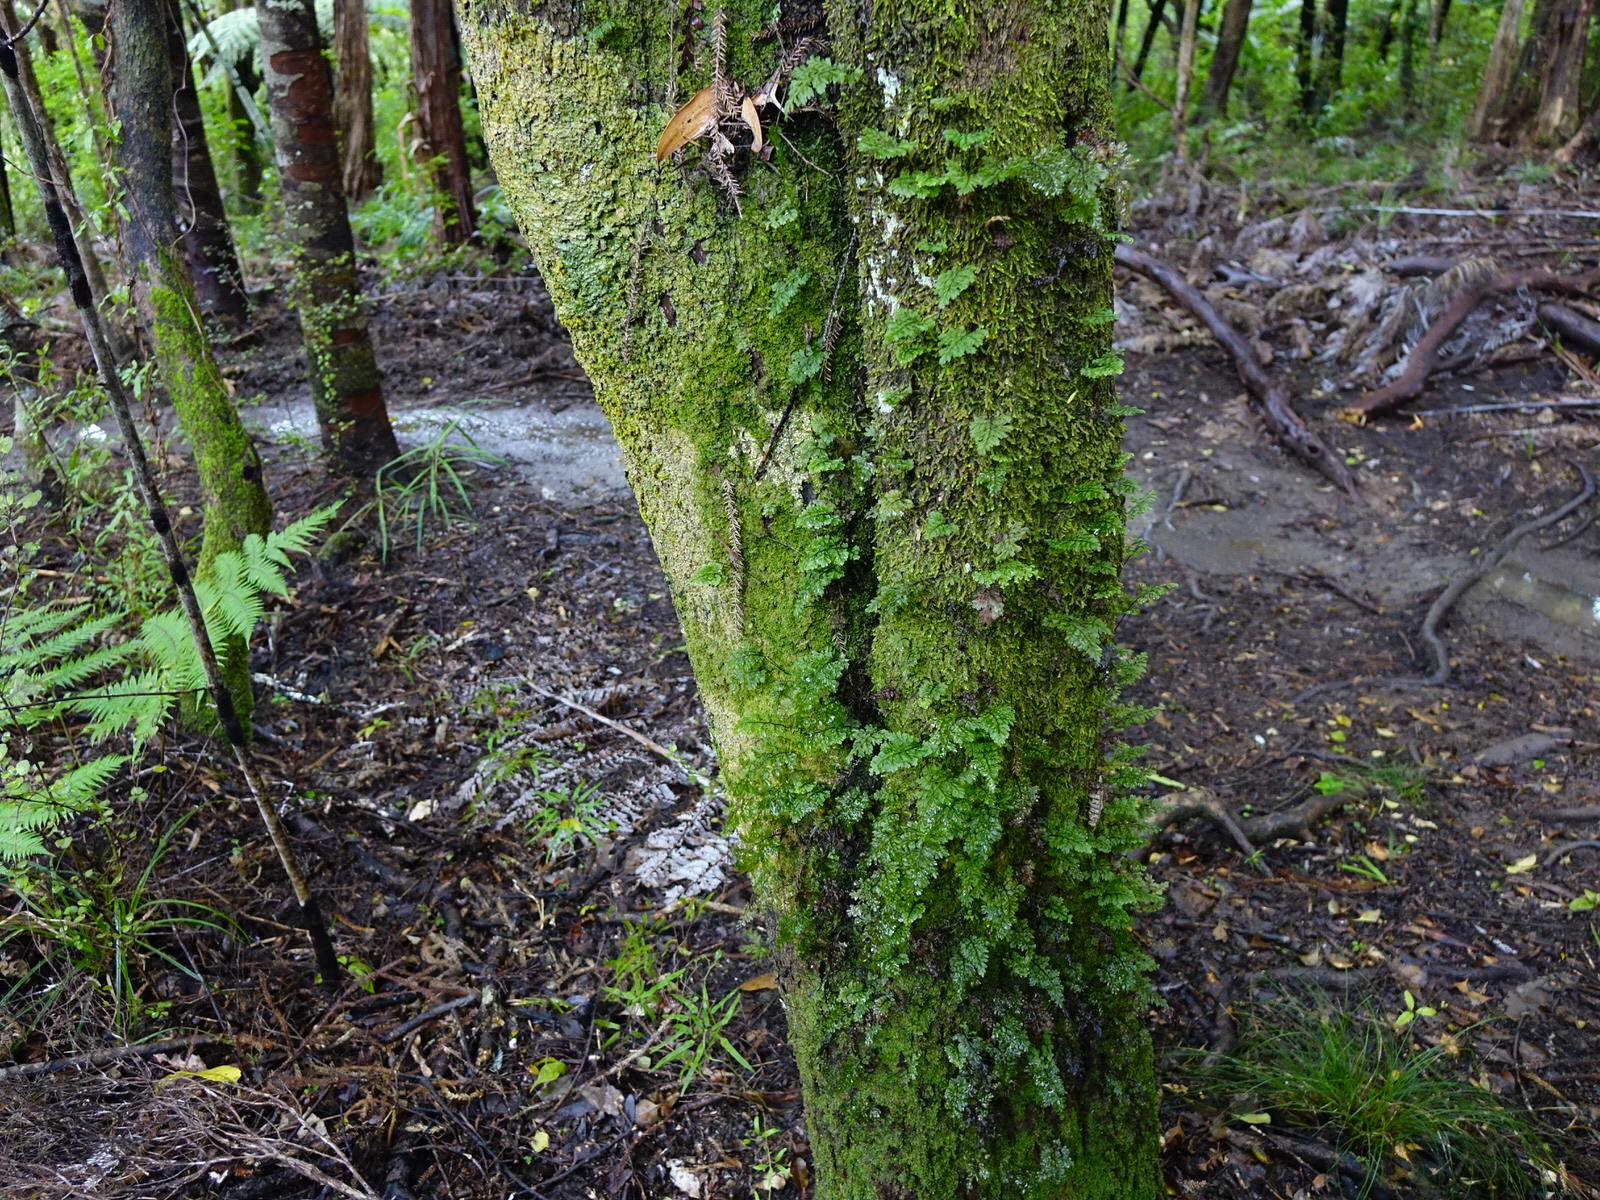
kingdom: Plantae
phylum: Tracheophyta
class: Polypodiopsida
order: Hymenophyllales
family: Hymenophyllaceae
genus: Hymenophyllum
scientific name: Hymenophyllum sanguinolentum
